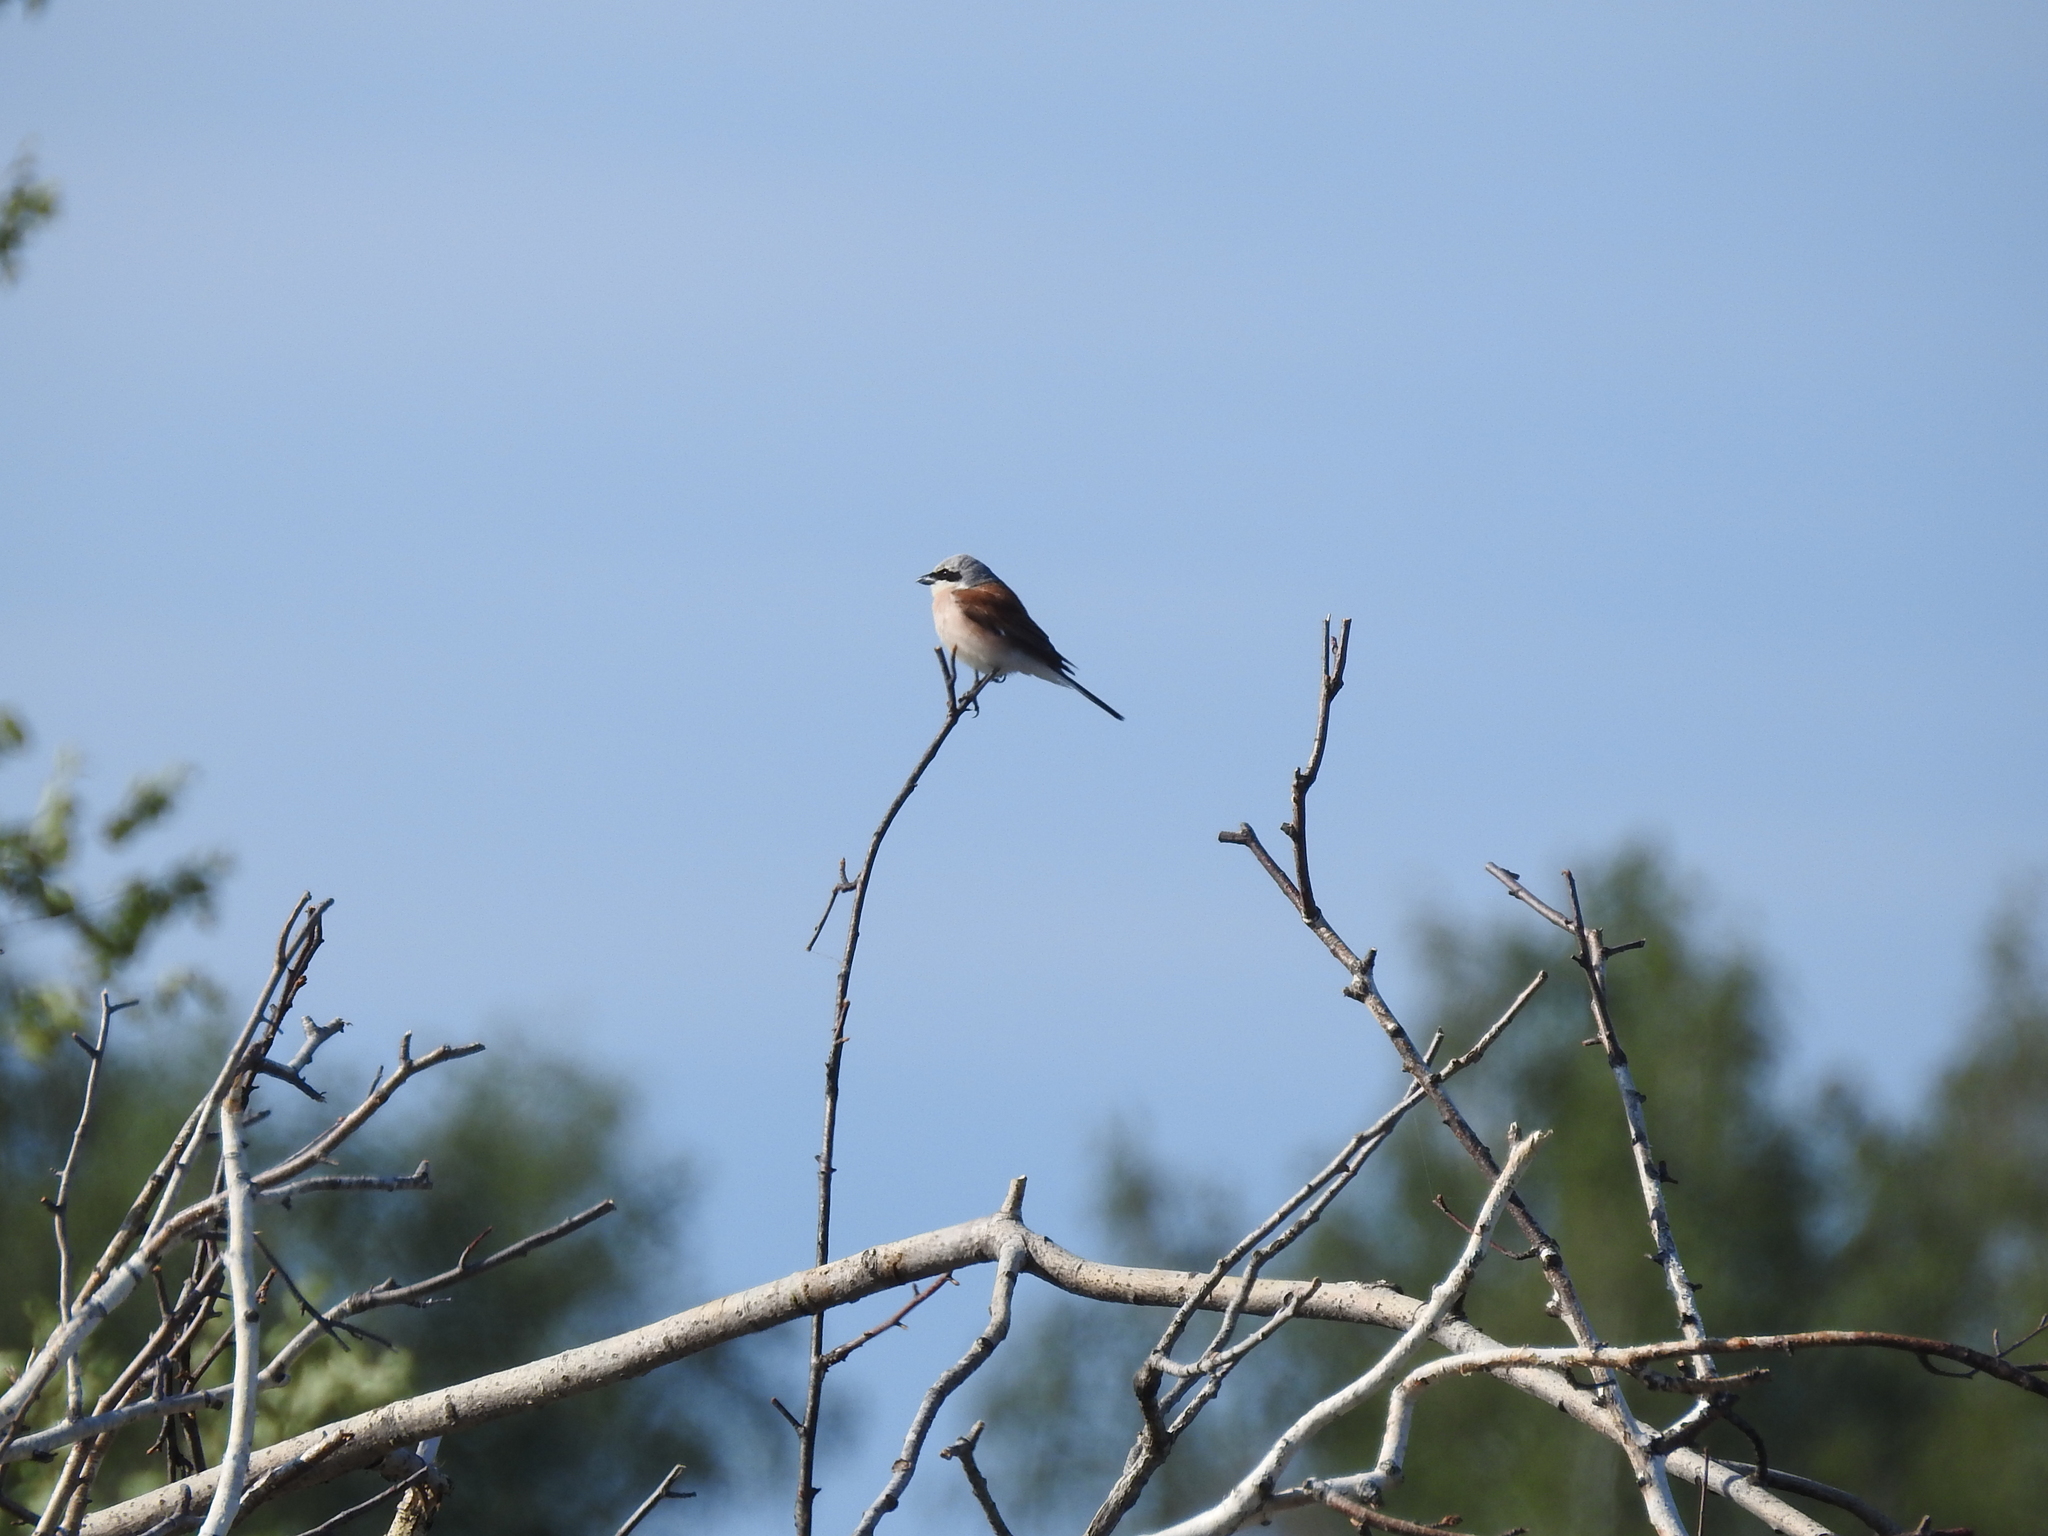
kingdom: Animalia
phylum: Chordata
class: Aves
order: Passeriformes
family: Laniidae
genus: Lanius
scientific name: Lanius collurio
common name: Red-backed shrike
